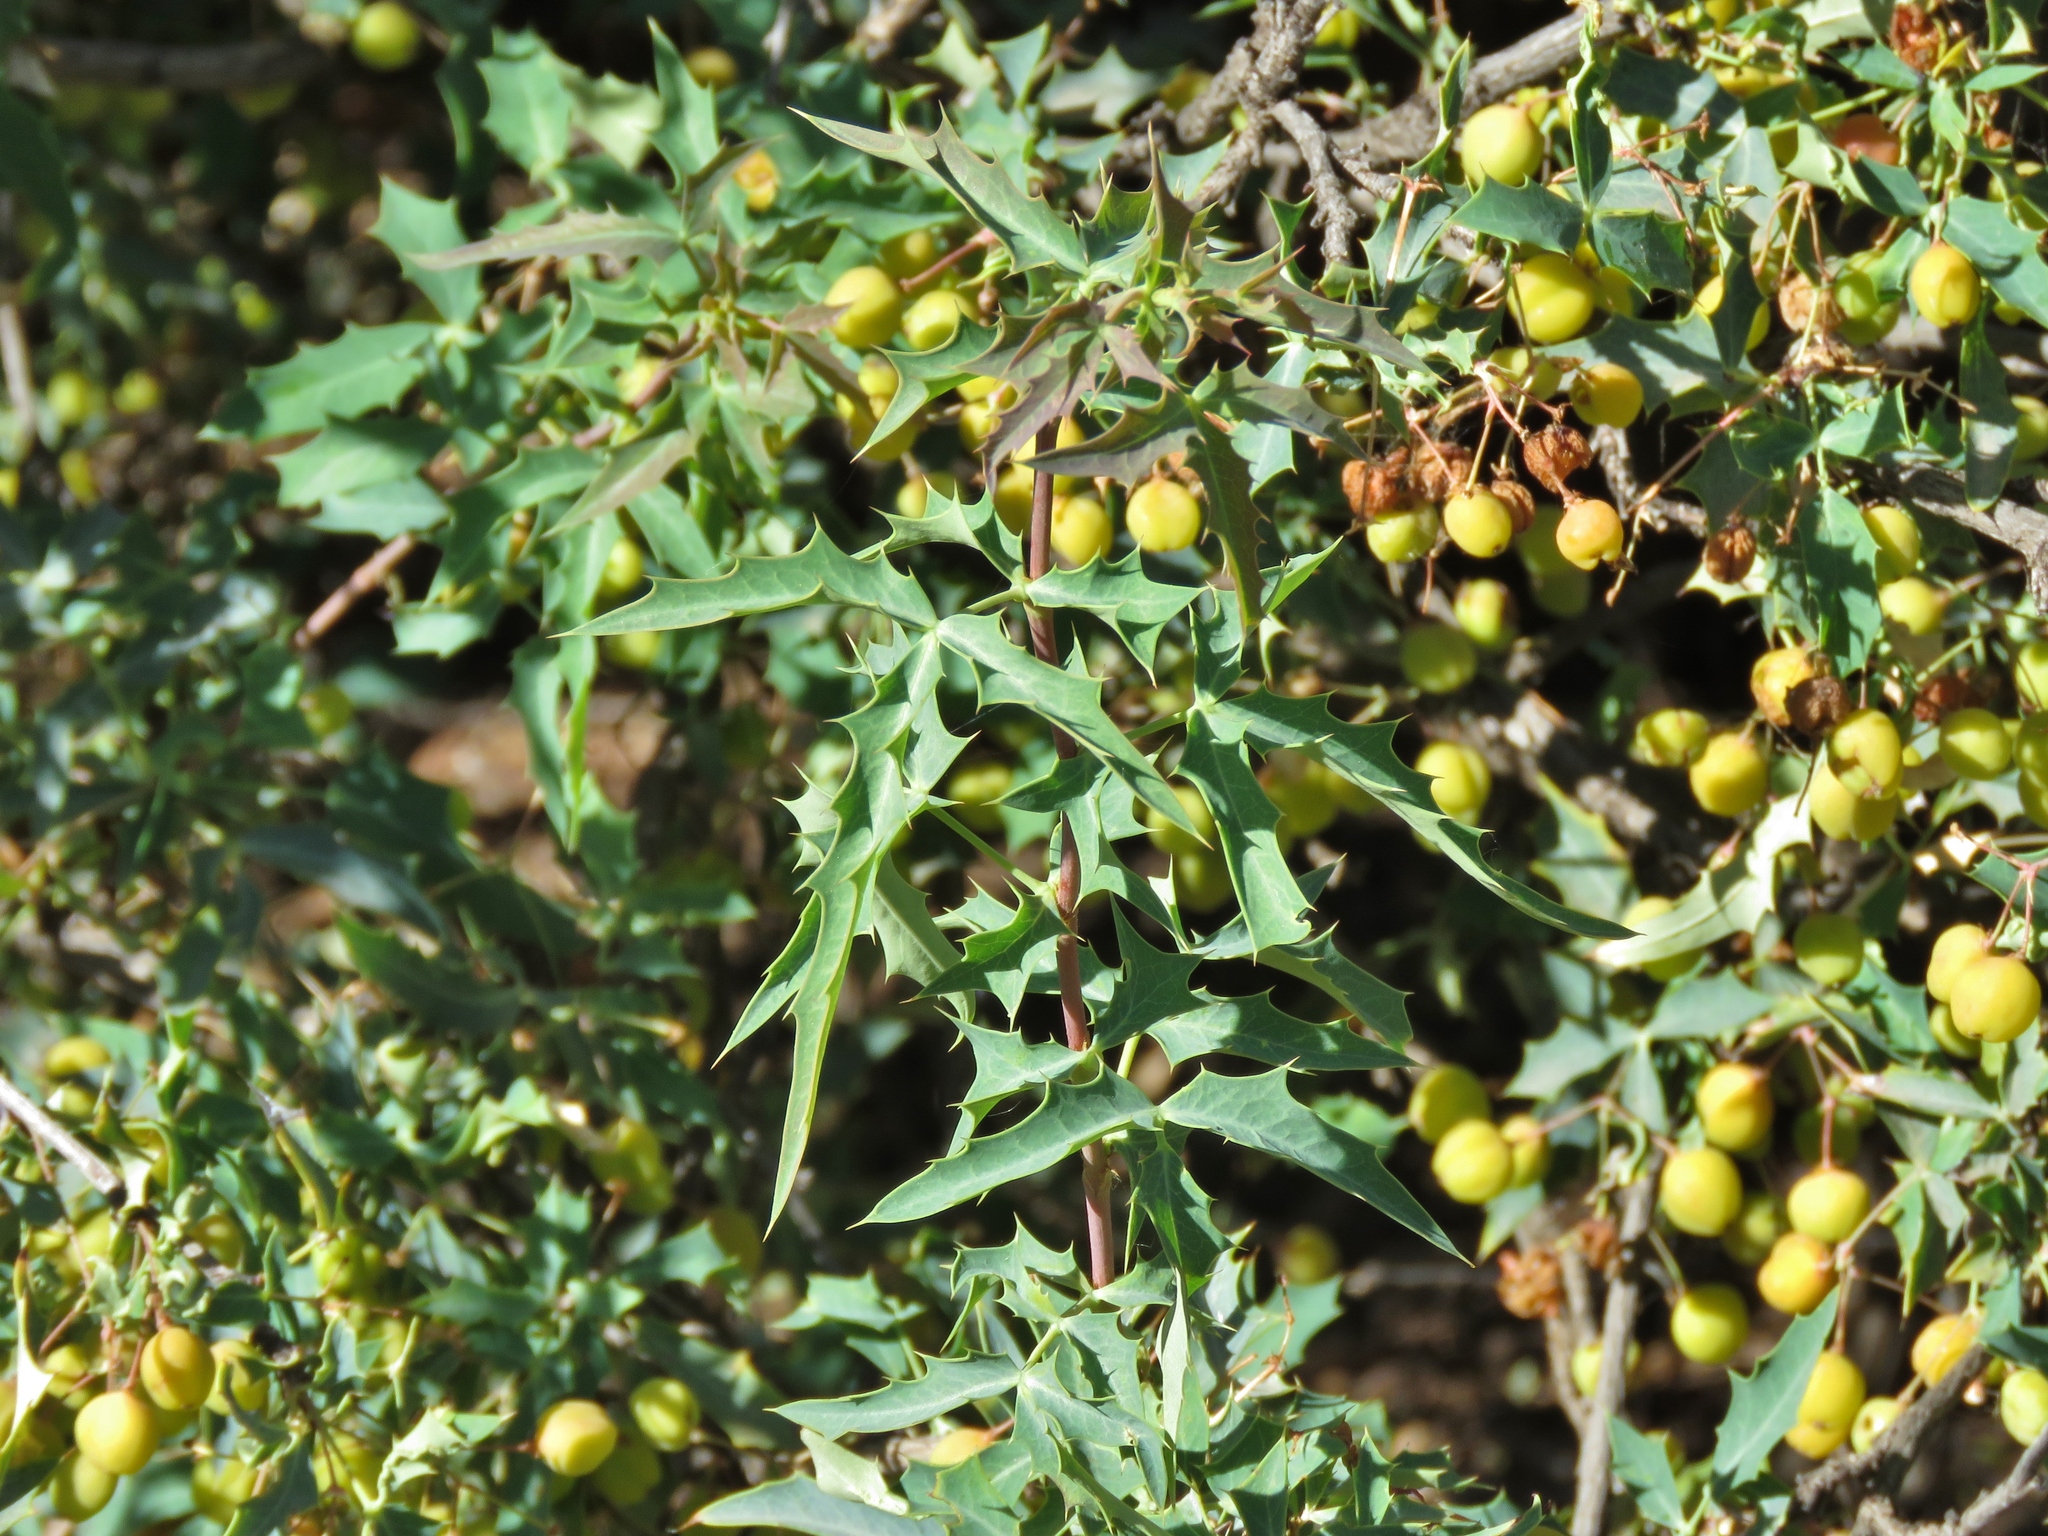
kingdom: Plantae
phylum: Tracheophyta
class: Magnoliopsida
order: Ranunculales
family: Berberidaceae
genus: Alloberberis
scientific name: Alloberberis haematocarpa
